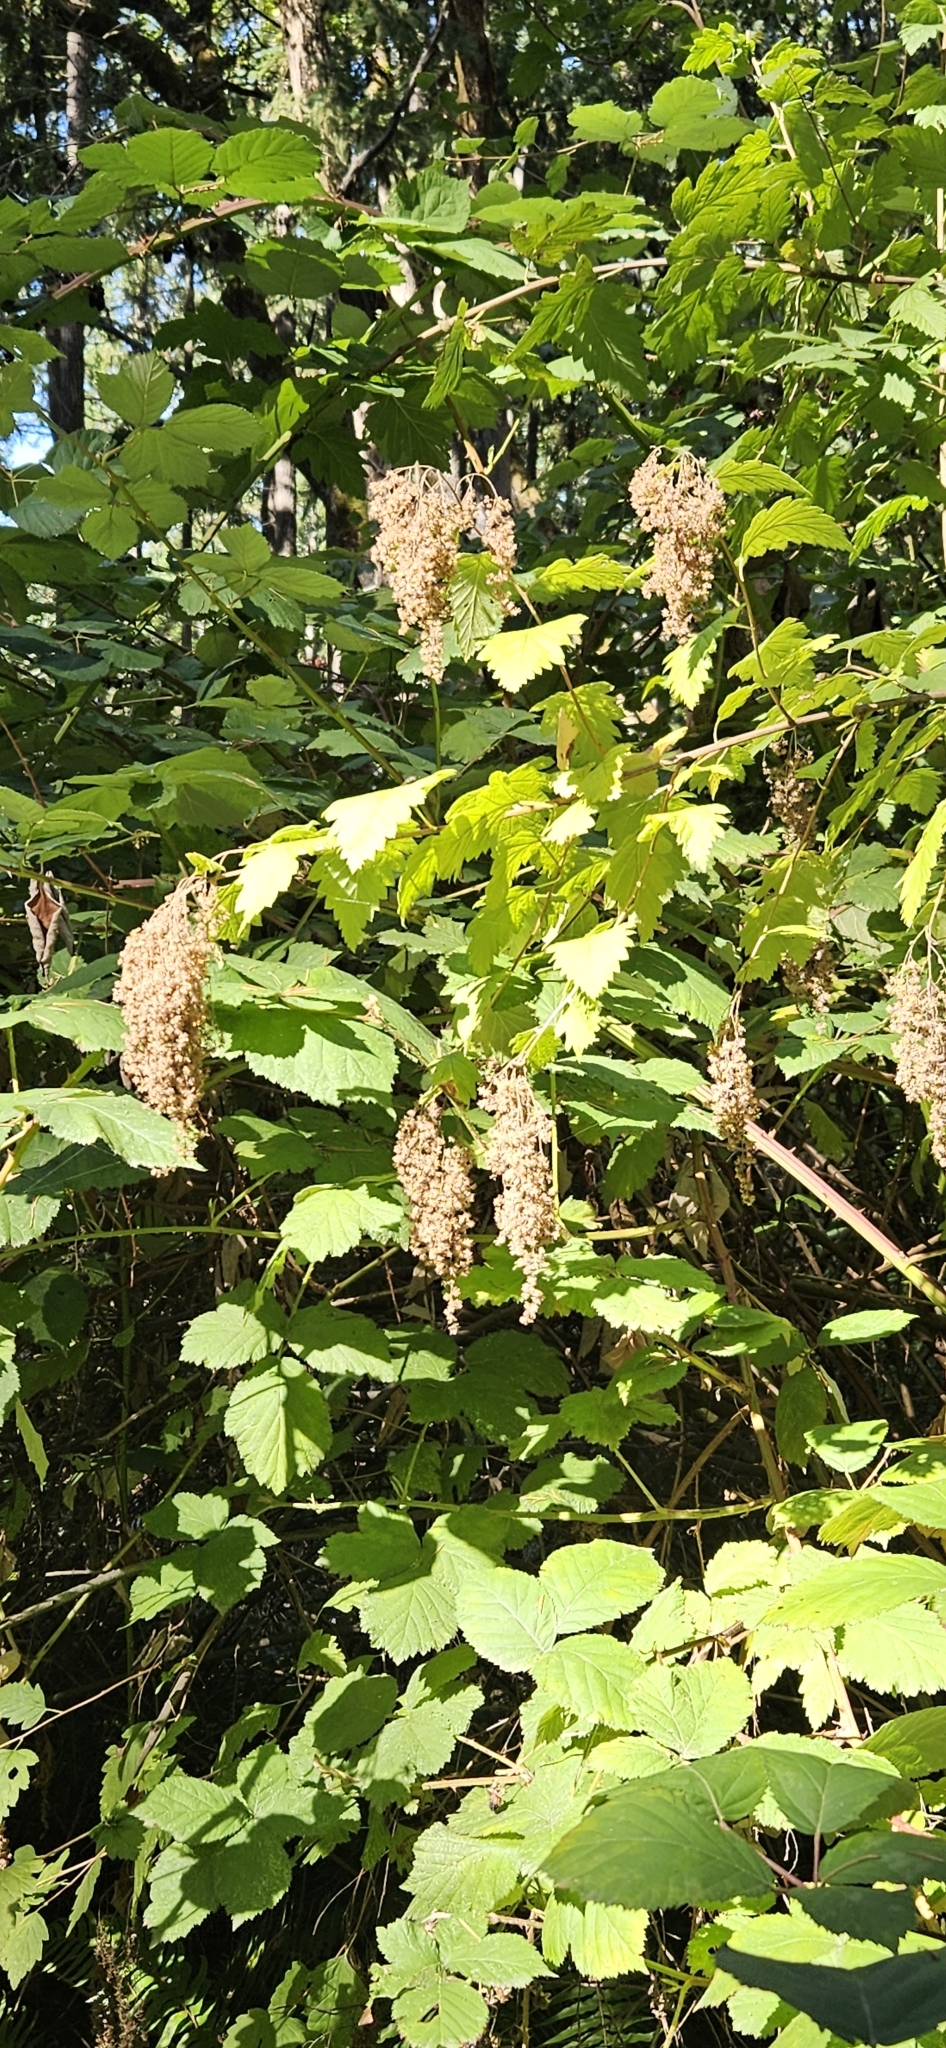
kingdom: Plantae
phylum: Tracheophyta
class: Magnoliopsida
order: Rosales
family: Rosaceae
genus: Holodiscus
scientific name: Holodiscus discolor
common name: Oceanspray
